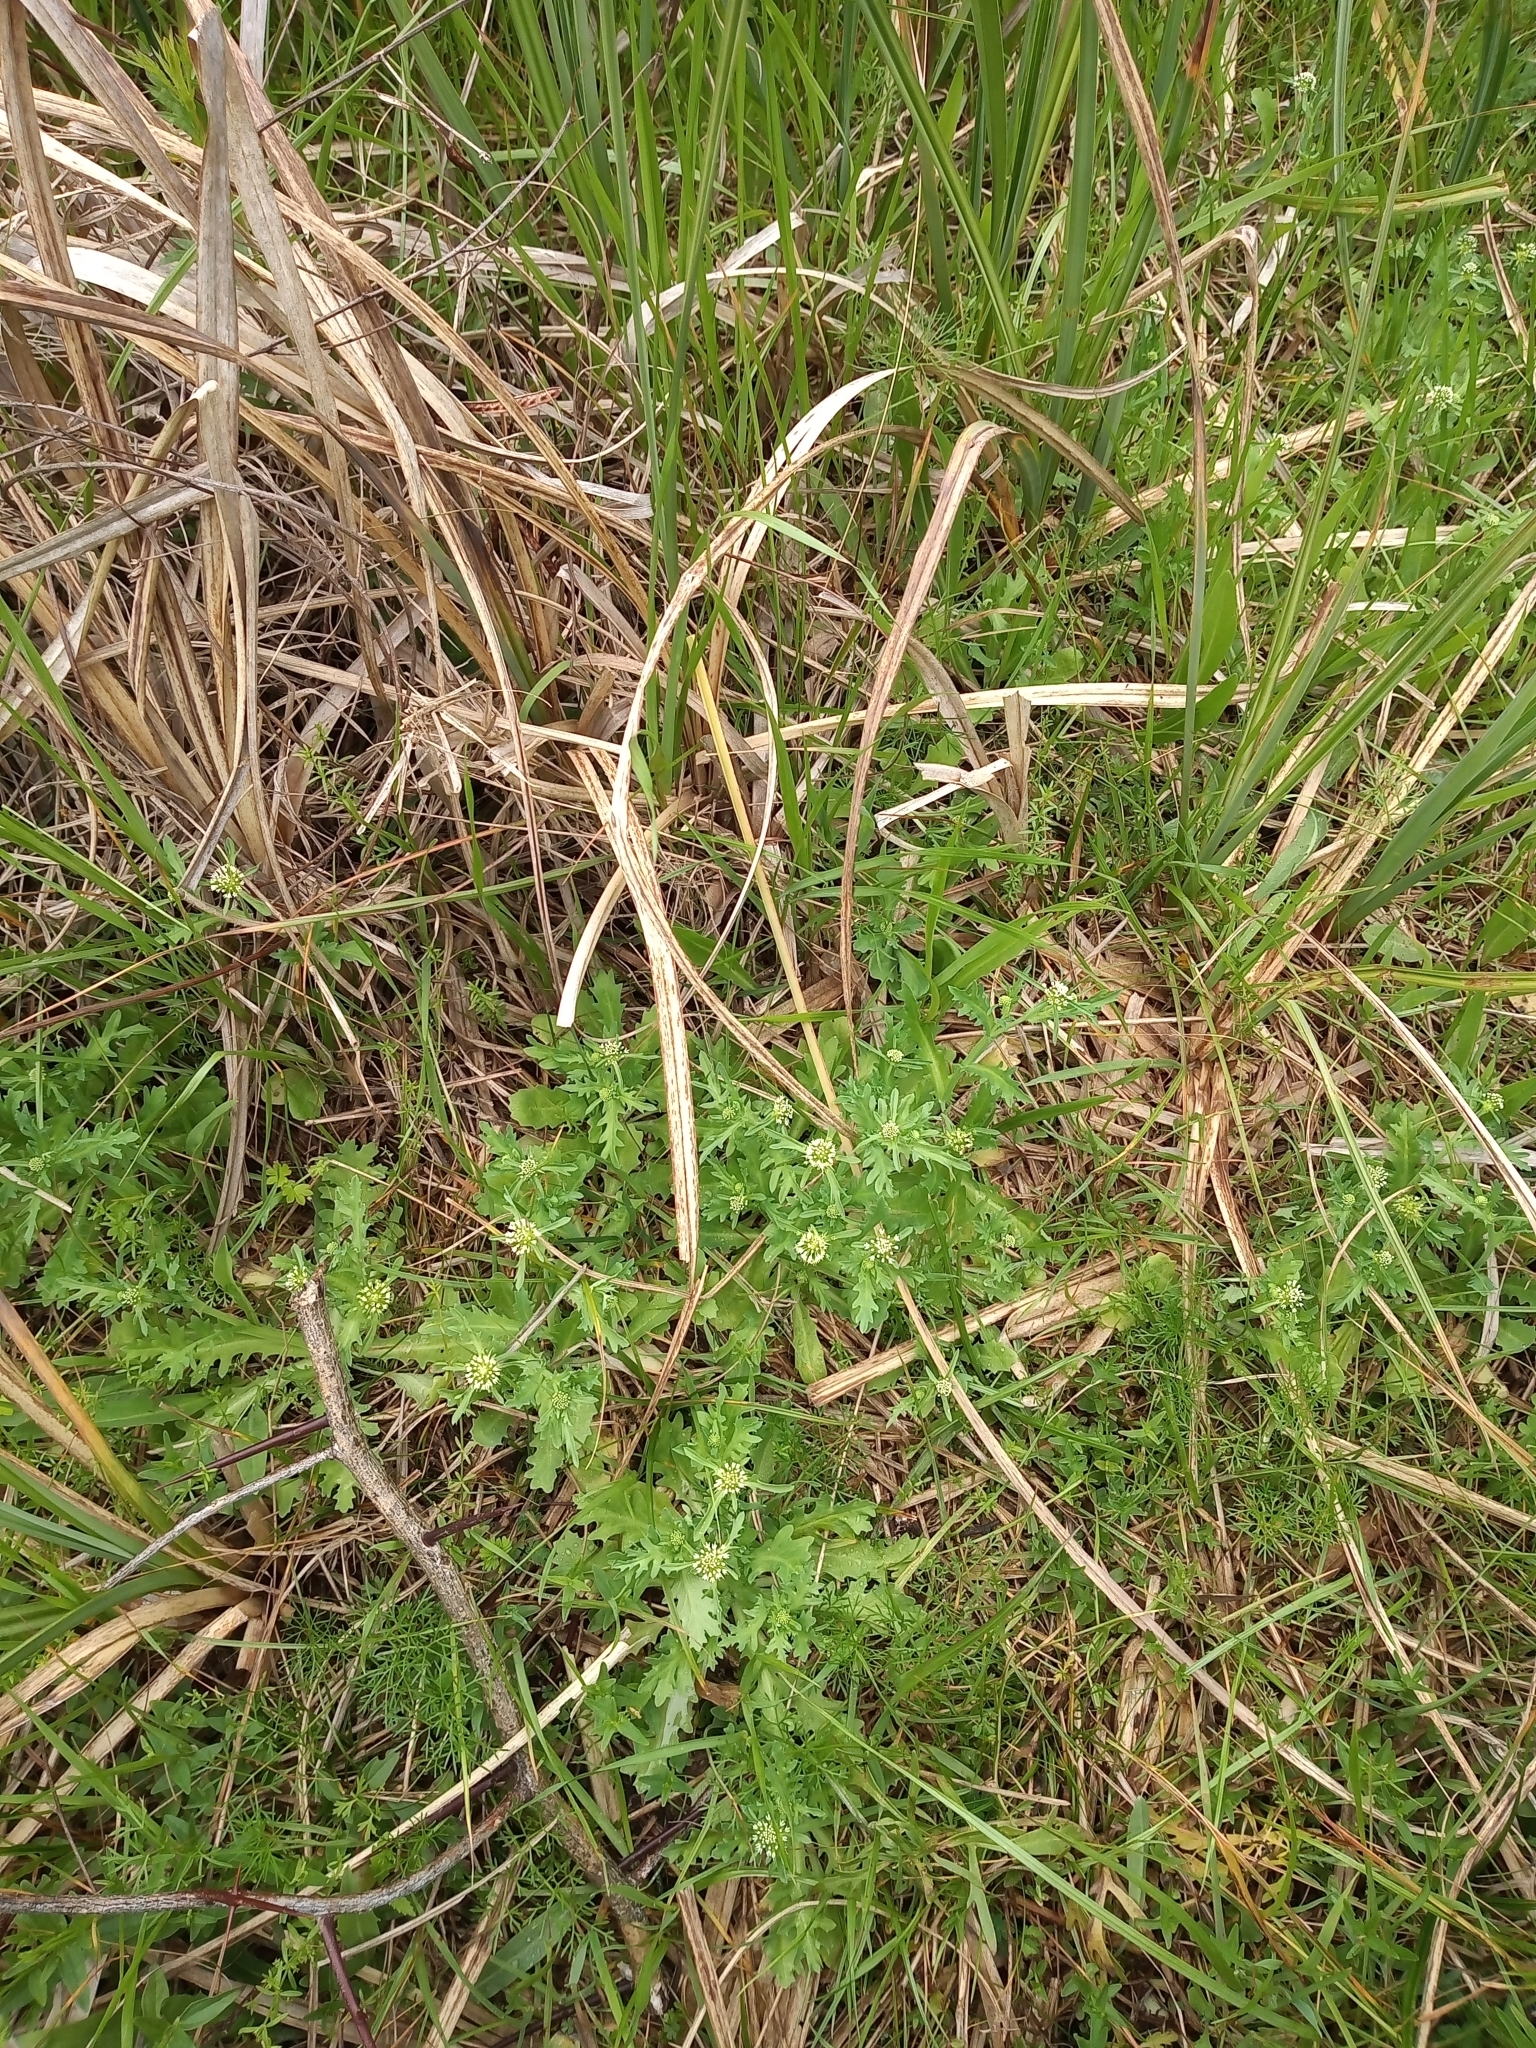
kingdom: Plantae
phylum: Tracheophyta
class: Magnoliopsida
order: Asterales
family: Calyceraceae
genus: Acicarpha
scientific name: Acicarpha tribuloides
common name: Madam gorgon
